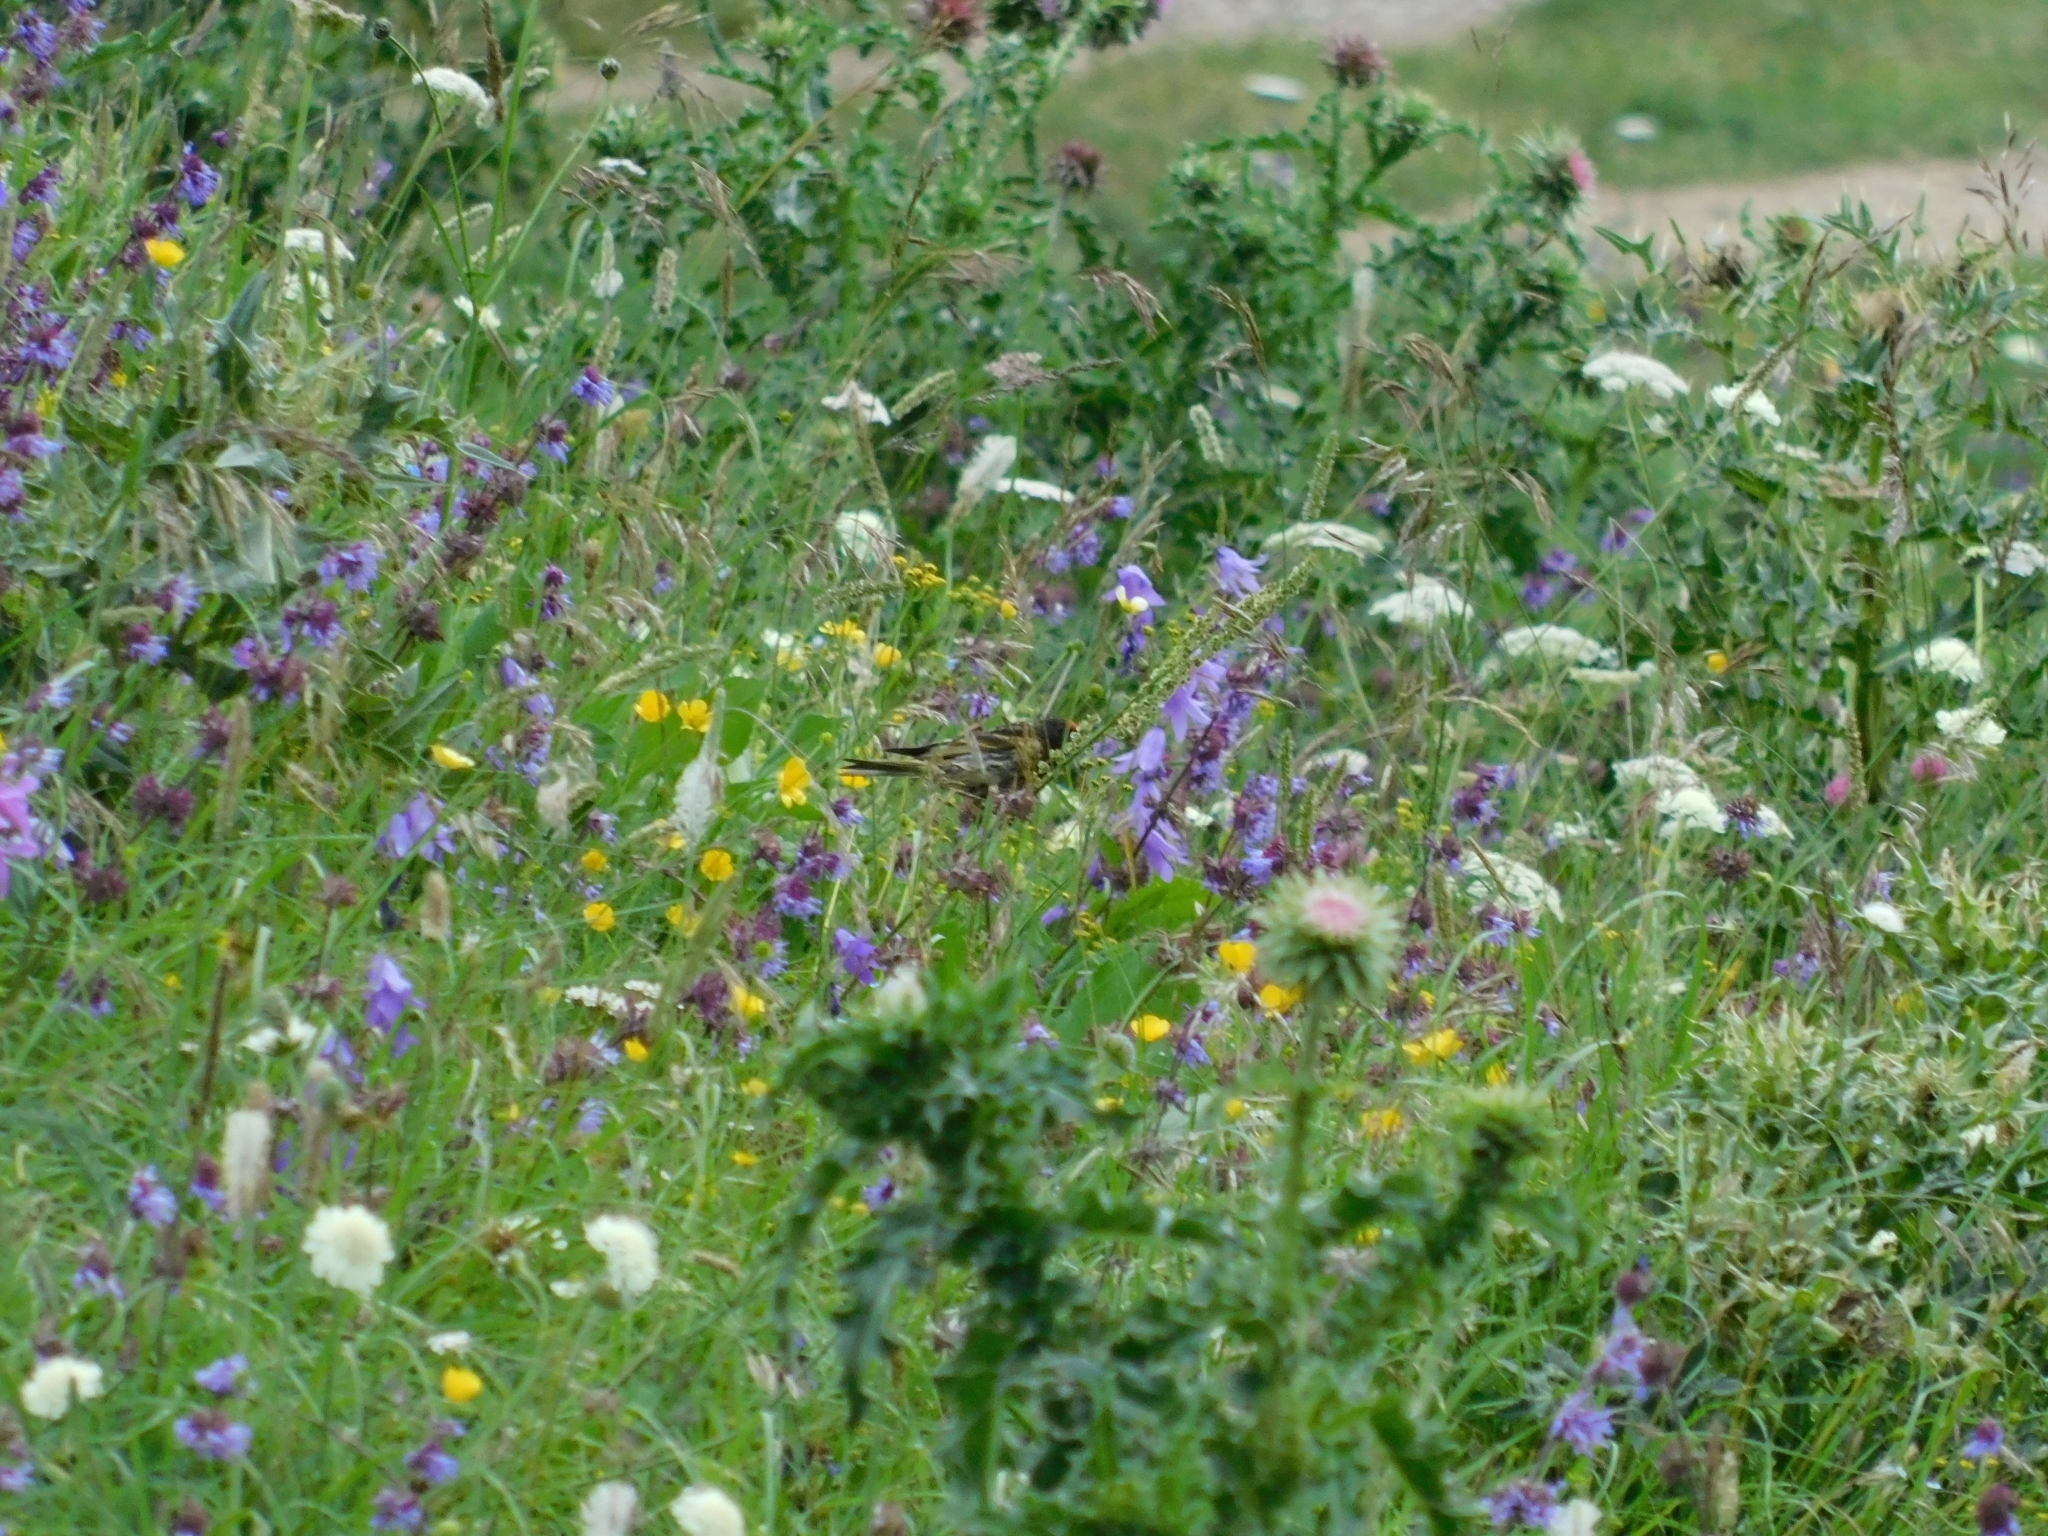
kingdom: Animalia
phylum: Chordata
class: Aves
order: Passeriformes
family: Fringillidae
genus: Serinus
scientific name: Serinus pusillus
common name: Red-fronted serin
